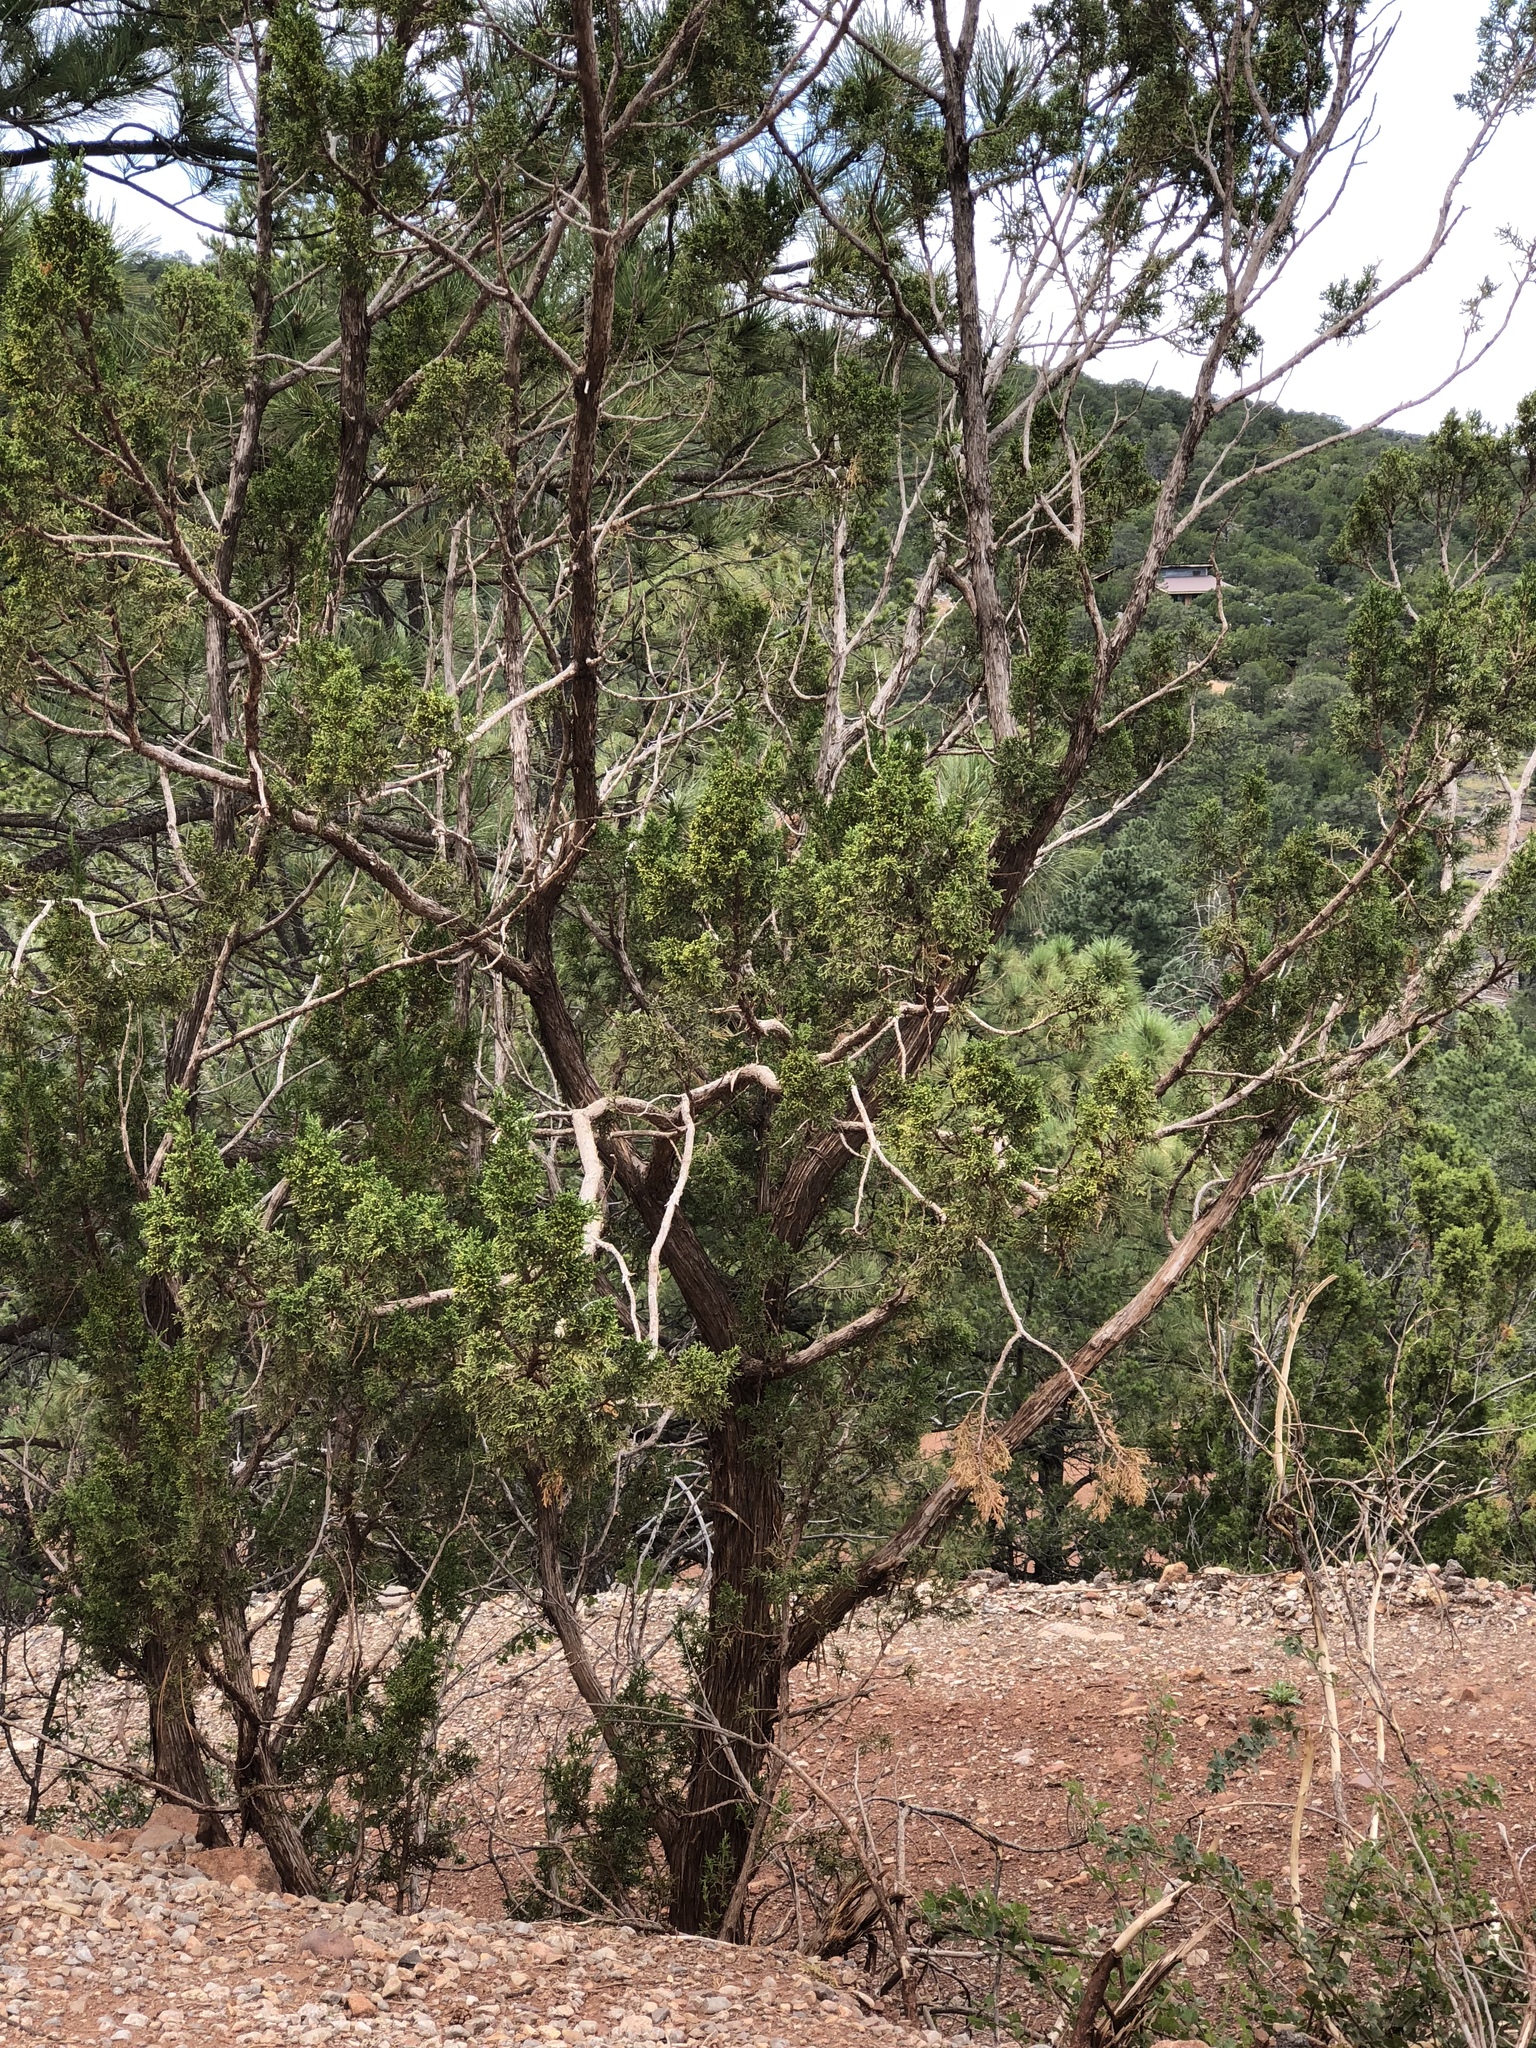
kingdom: Plantae
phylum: Tracheophyta
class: Pinopsida
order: Pinales
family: Cupressaceae
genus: Juniperus
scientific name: Juniperus monosperma
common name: One-seed juniper
